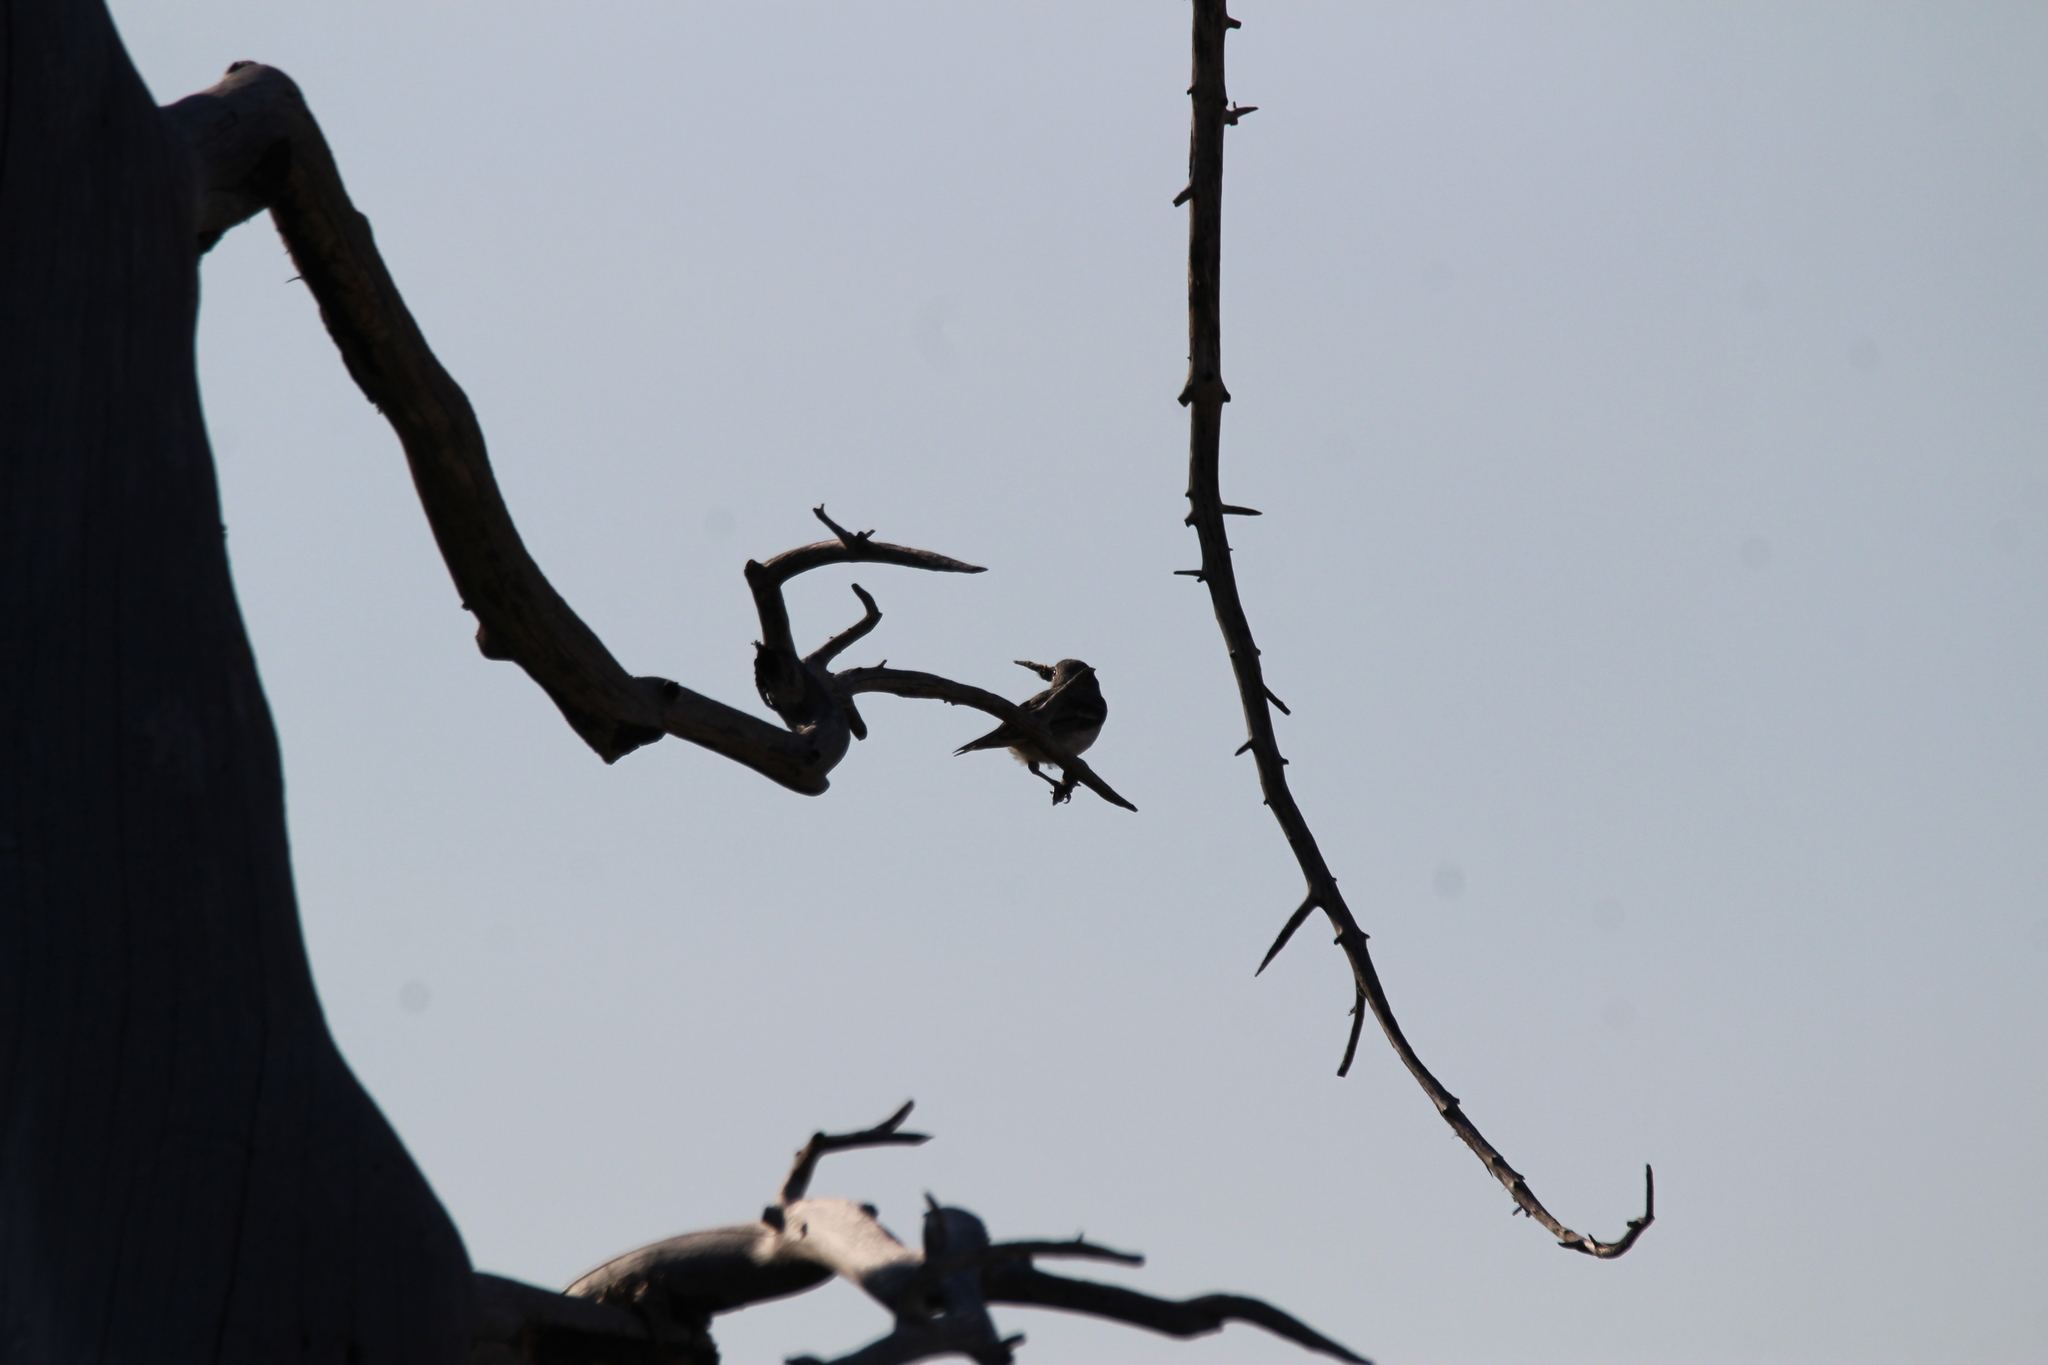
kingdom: Animalia
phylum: Chordata
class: Aves
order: Passeriformes
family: Vireonidae
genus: Vireo
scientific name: Vireo plumbeus
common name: Plumbeous vireo
